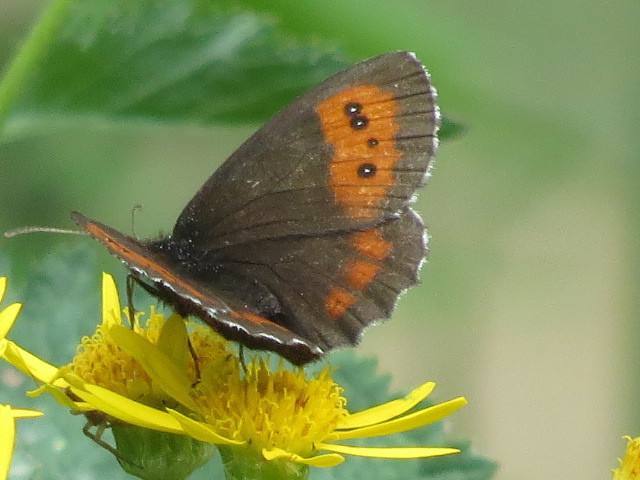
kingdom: Animalia
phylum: Arthropoda
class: Insecta
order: Lepidoptera
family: Nymphalidae
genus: Erebia
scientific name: Erebia euryale
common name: Large ringlet
